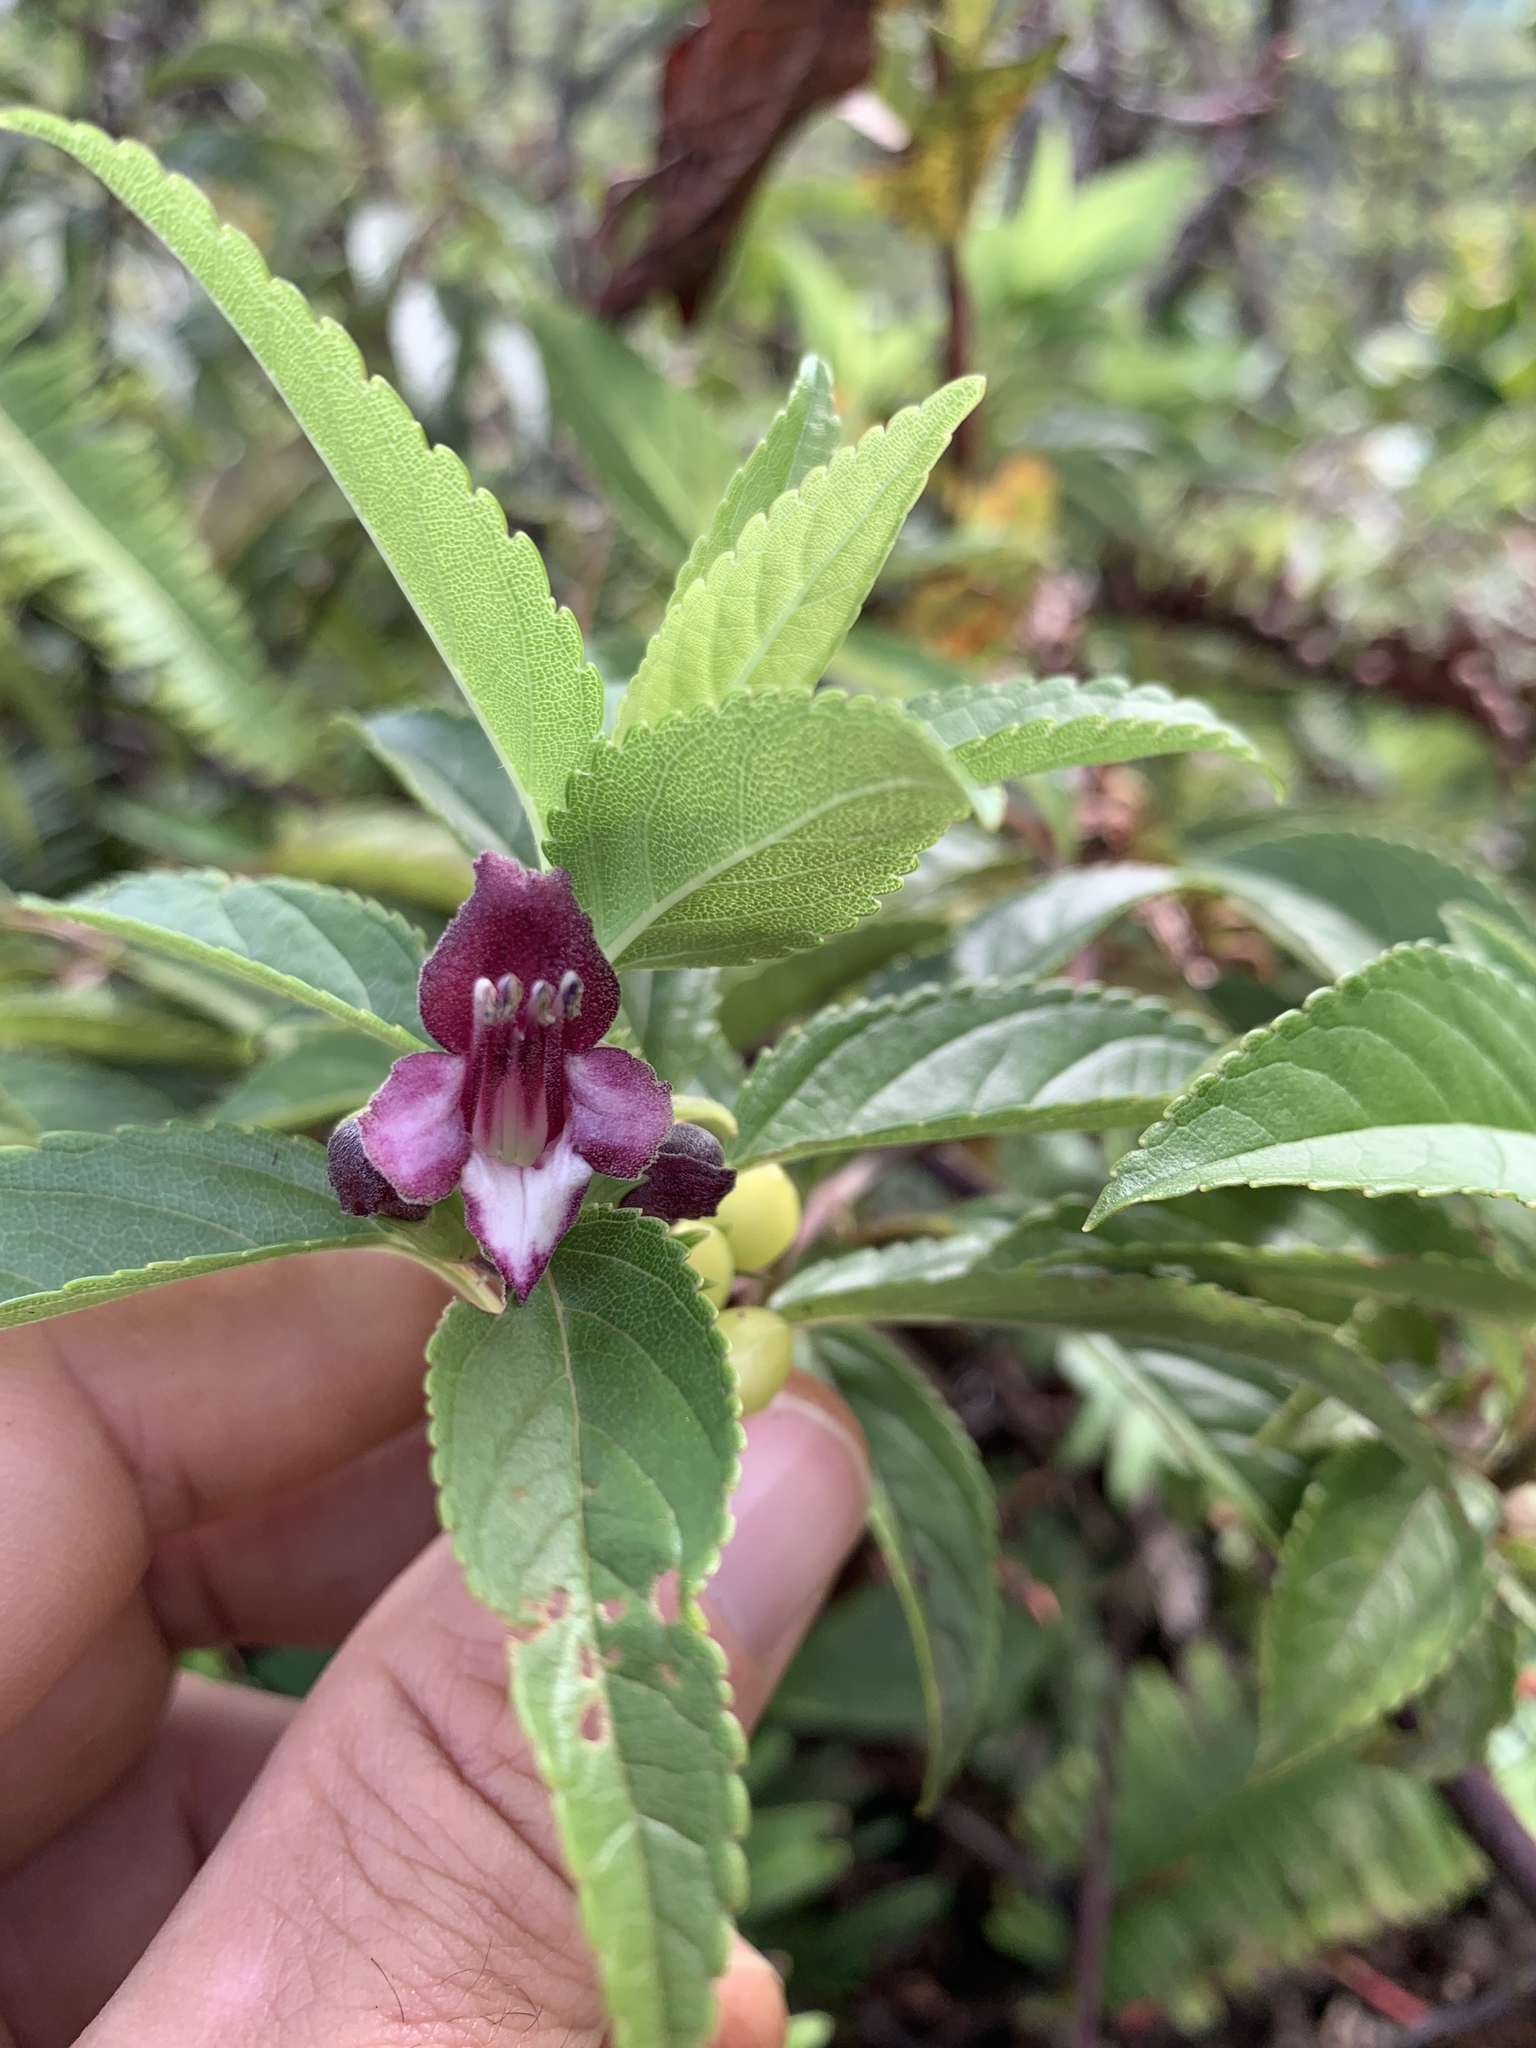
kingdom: Plantae
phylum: Tracheophyta
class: Magnoliopsida
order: Lamiales
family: Lamiaceae
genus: Stenogyne
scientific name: Stenogyne purpurea
